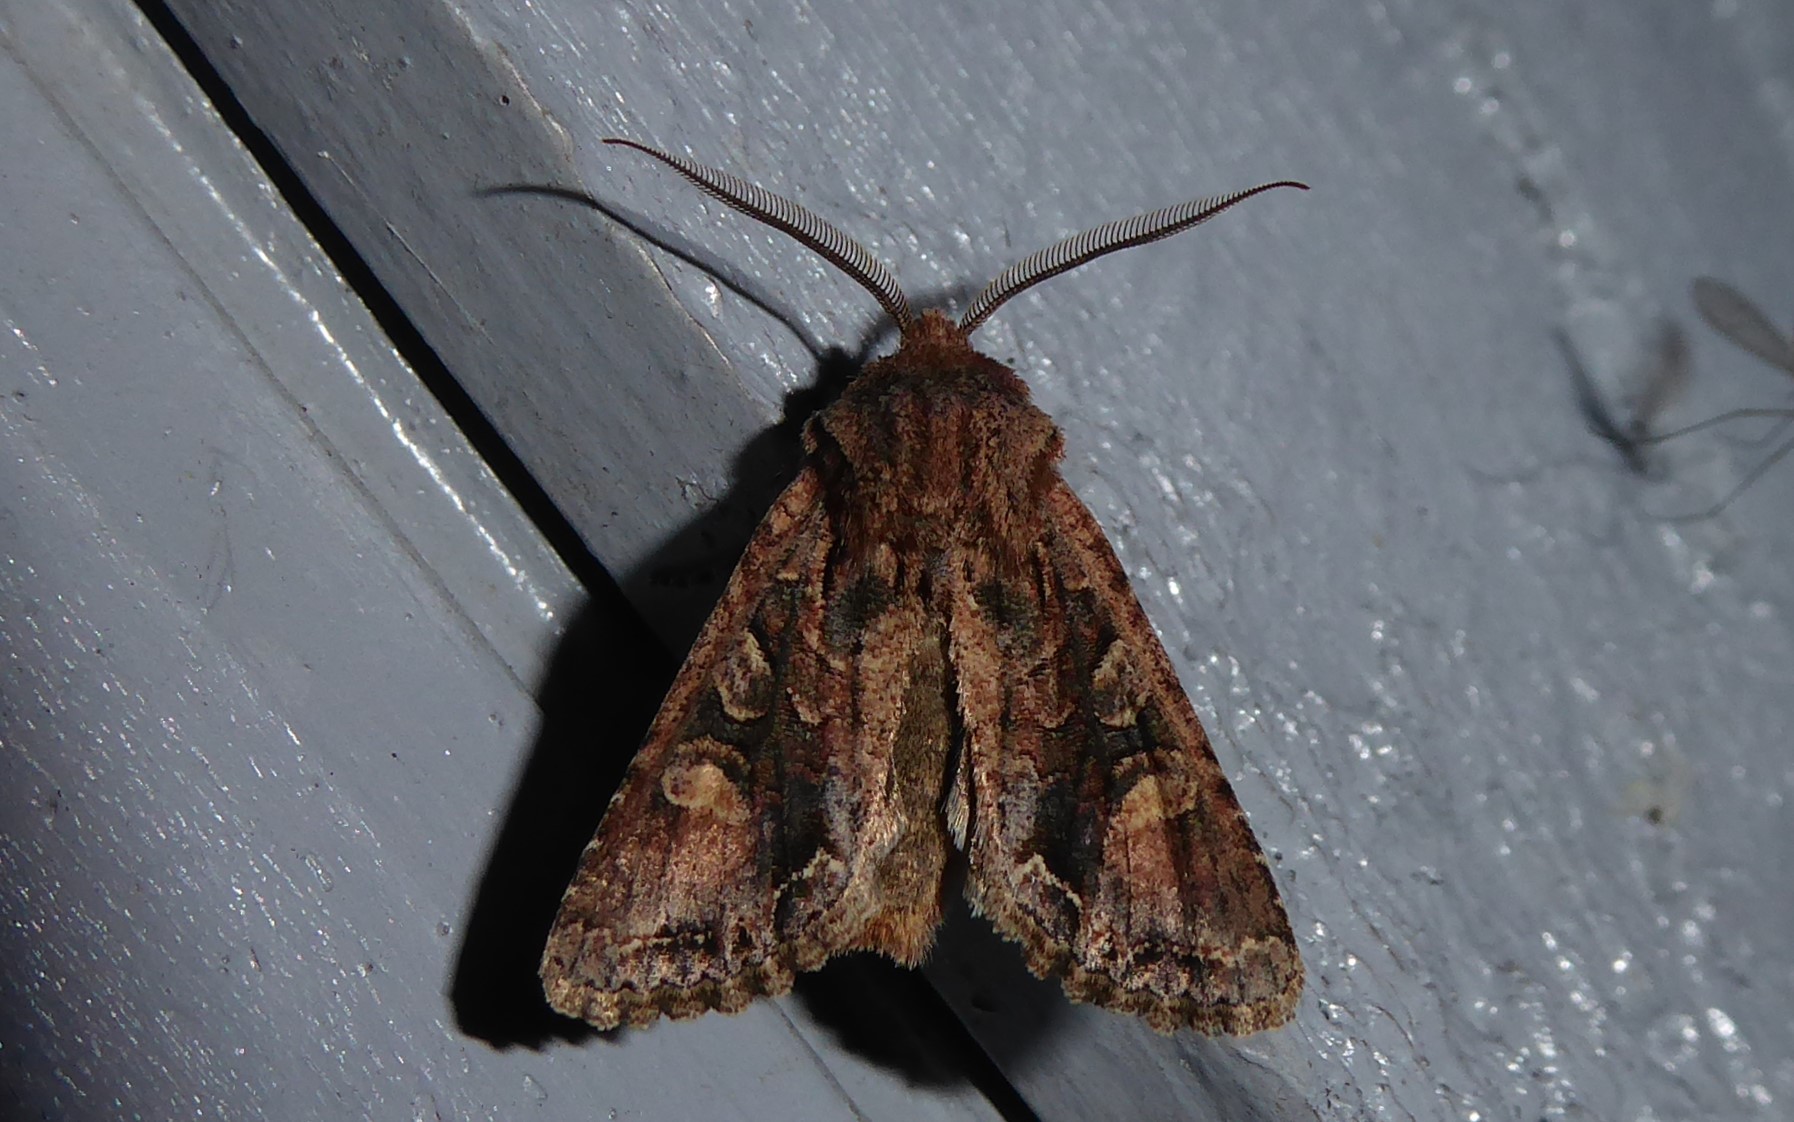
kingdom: Animalia
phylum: Arthropoda
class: Insecta
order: Lepidoptera
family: Noctuidae
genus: Ichneutica
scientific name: Ichneutica skelloni
